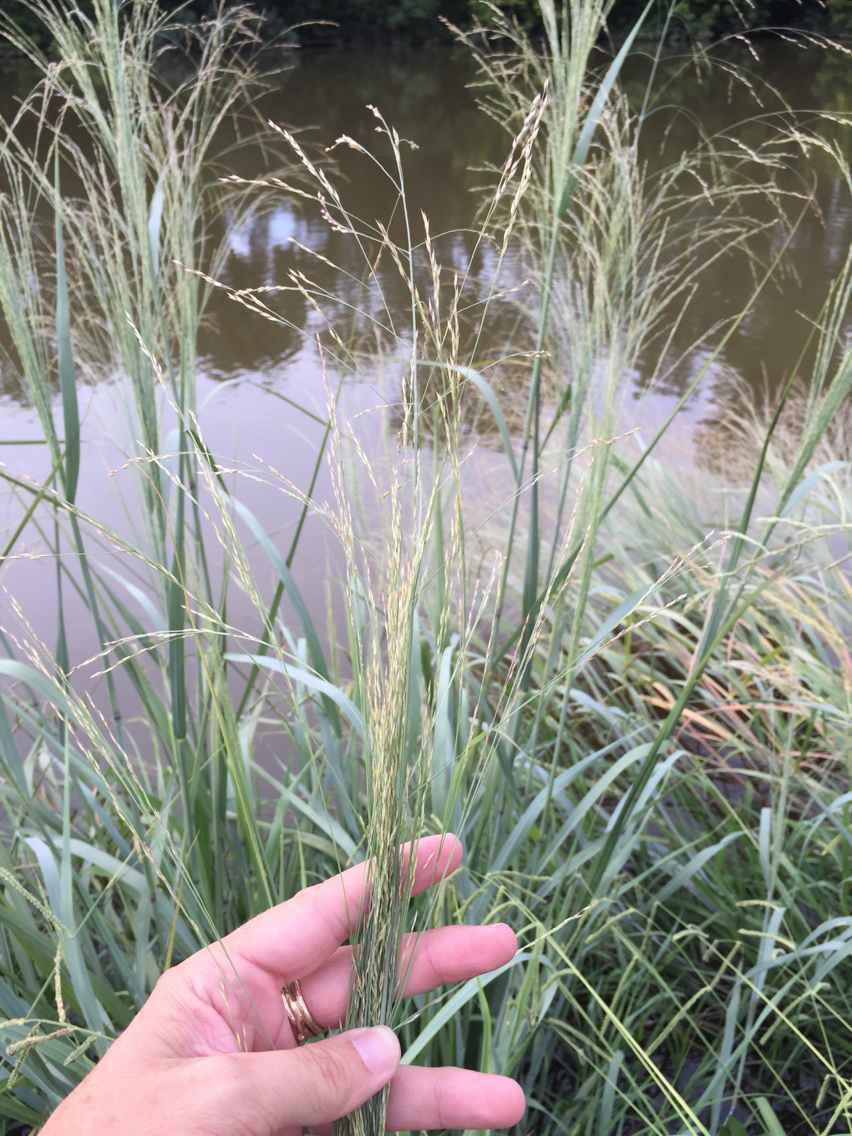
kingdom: Plantae
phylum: Tracheophyta
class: Liliopsida
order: Poales
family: Poaceae
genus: Panicum
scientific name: Panicum virgatum
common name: Switchgrass
